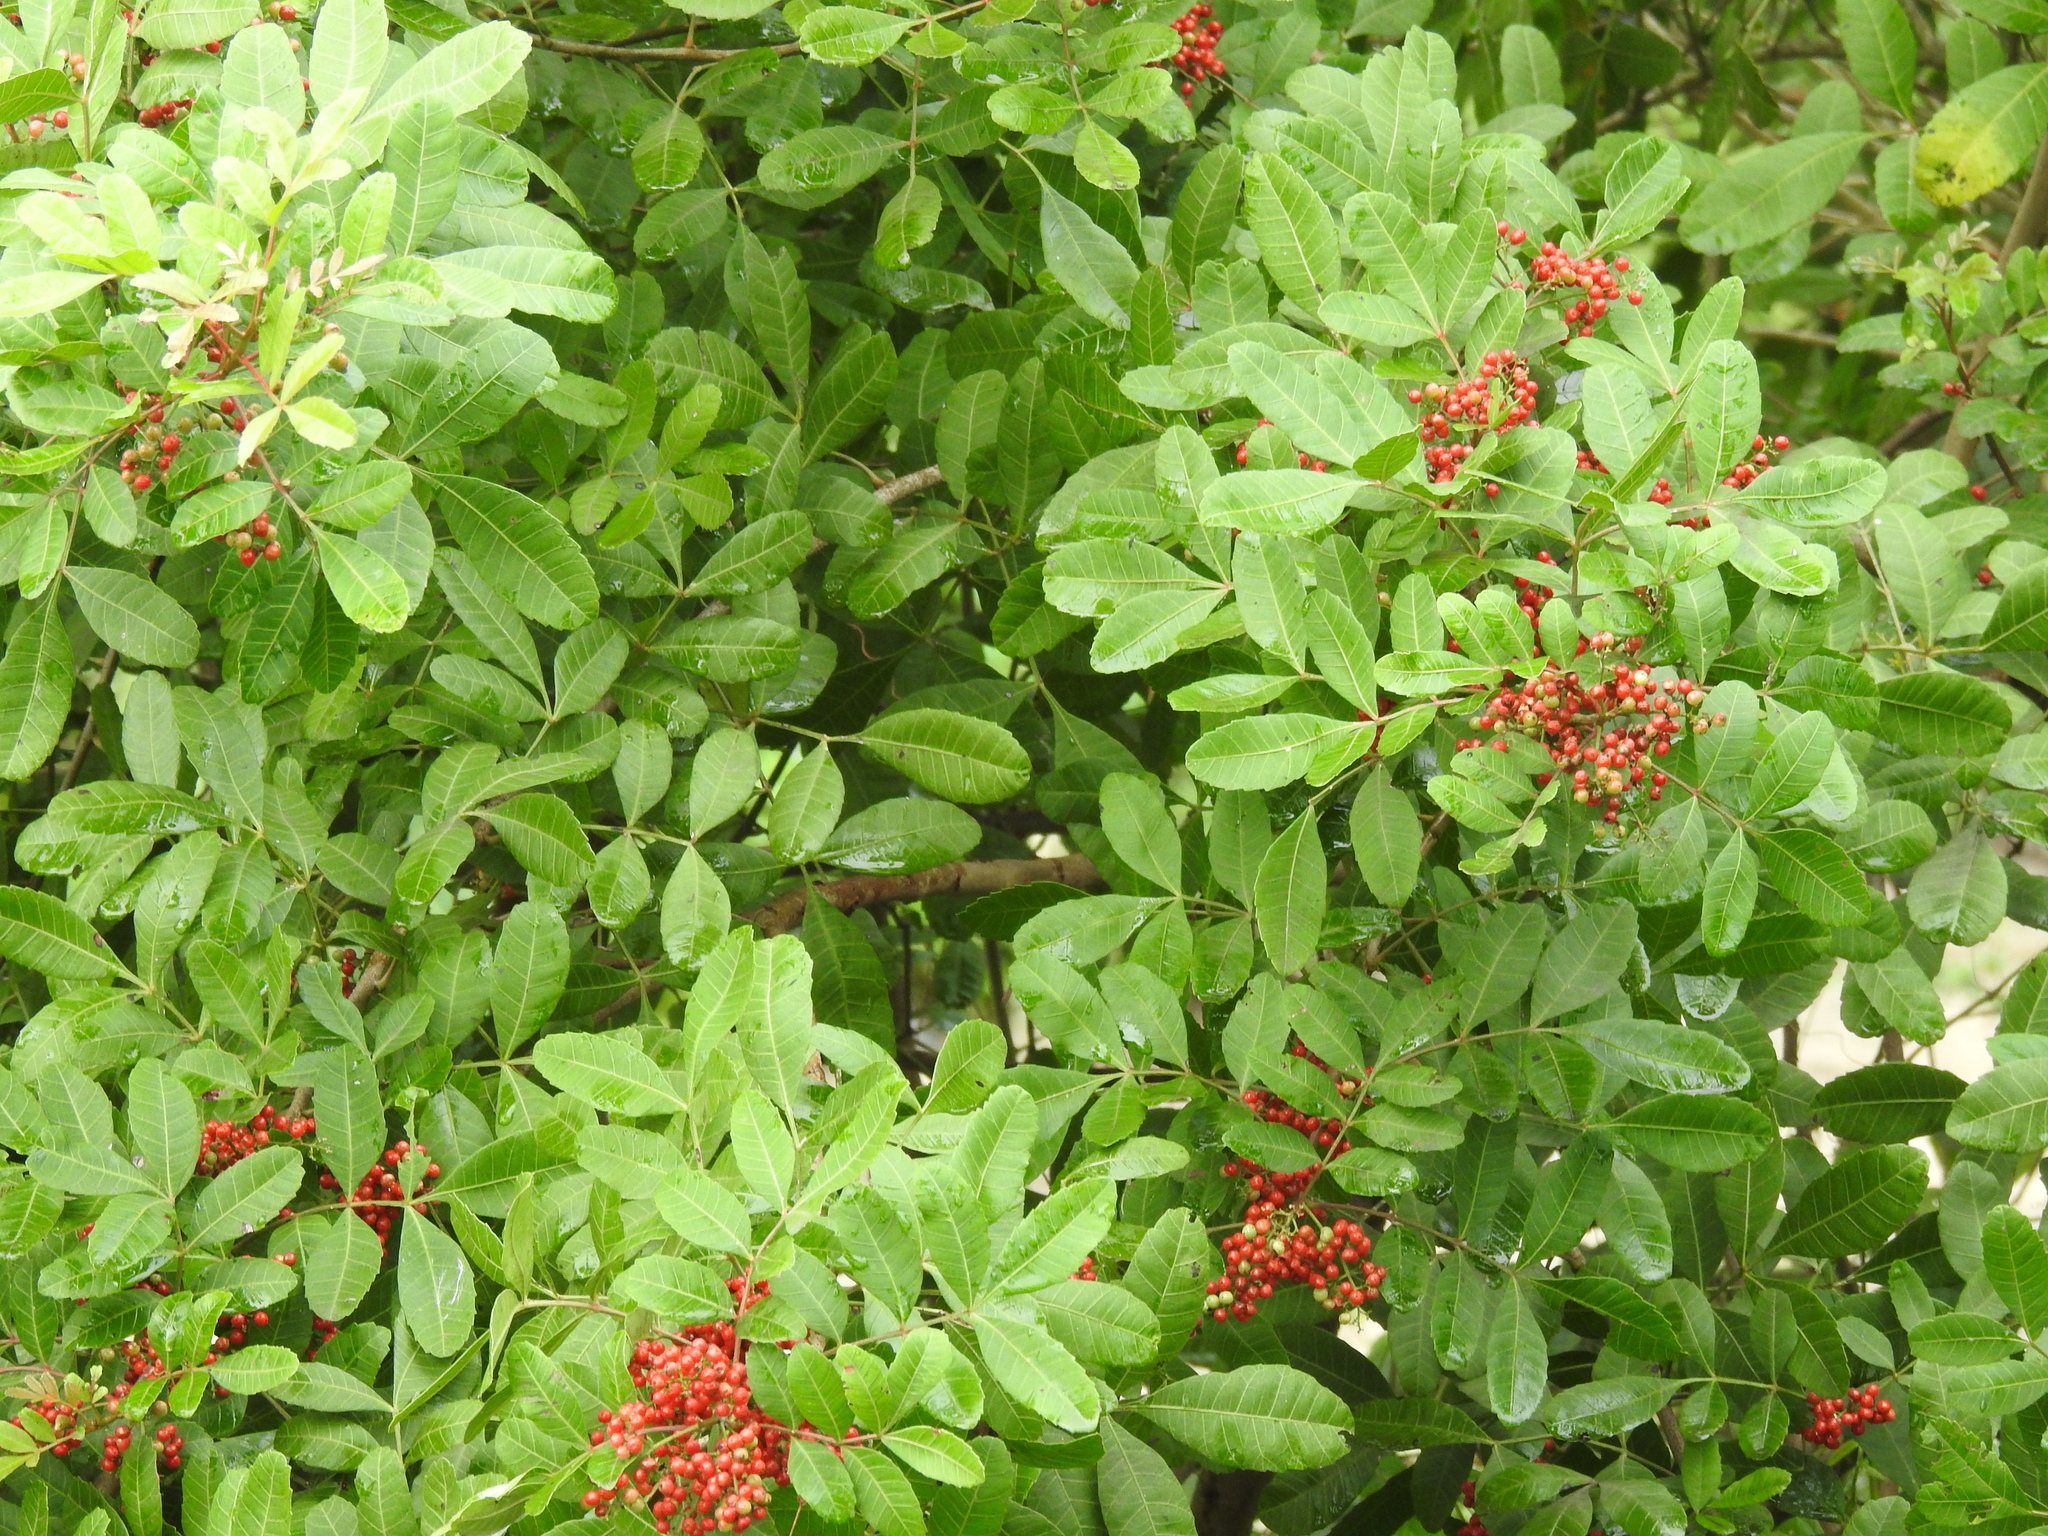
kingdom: Plantae
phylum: Tracheophyta
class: Magnoliopsida
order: Sapindales
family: Anacardiaceae
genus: Schinus
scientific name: Schinus terebinthifolia
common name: Brazilian peppertree
